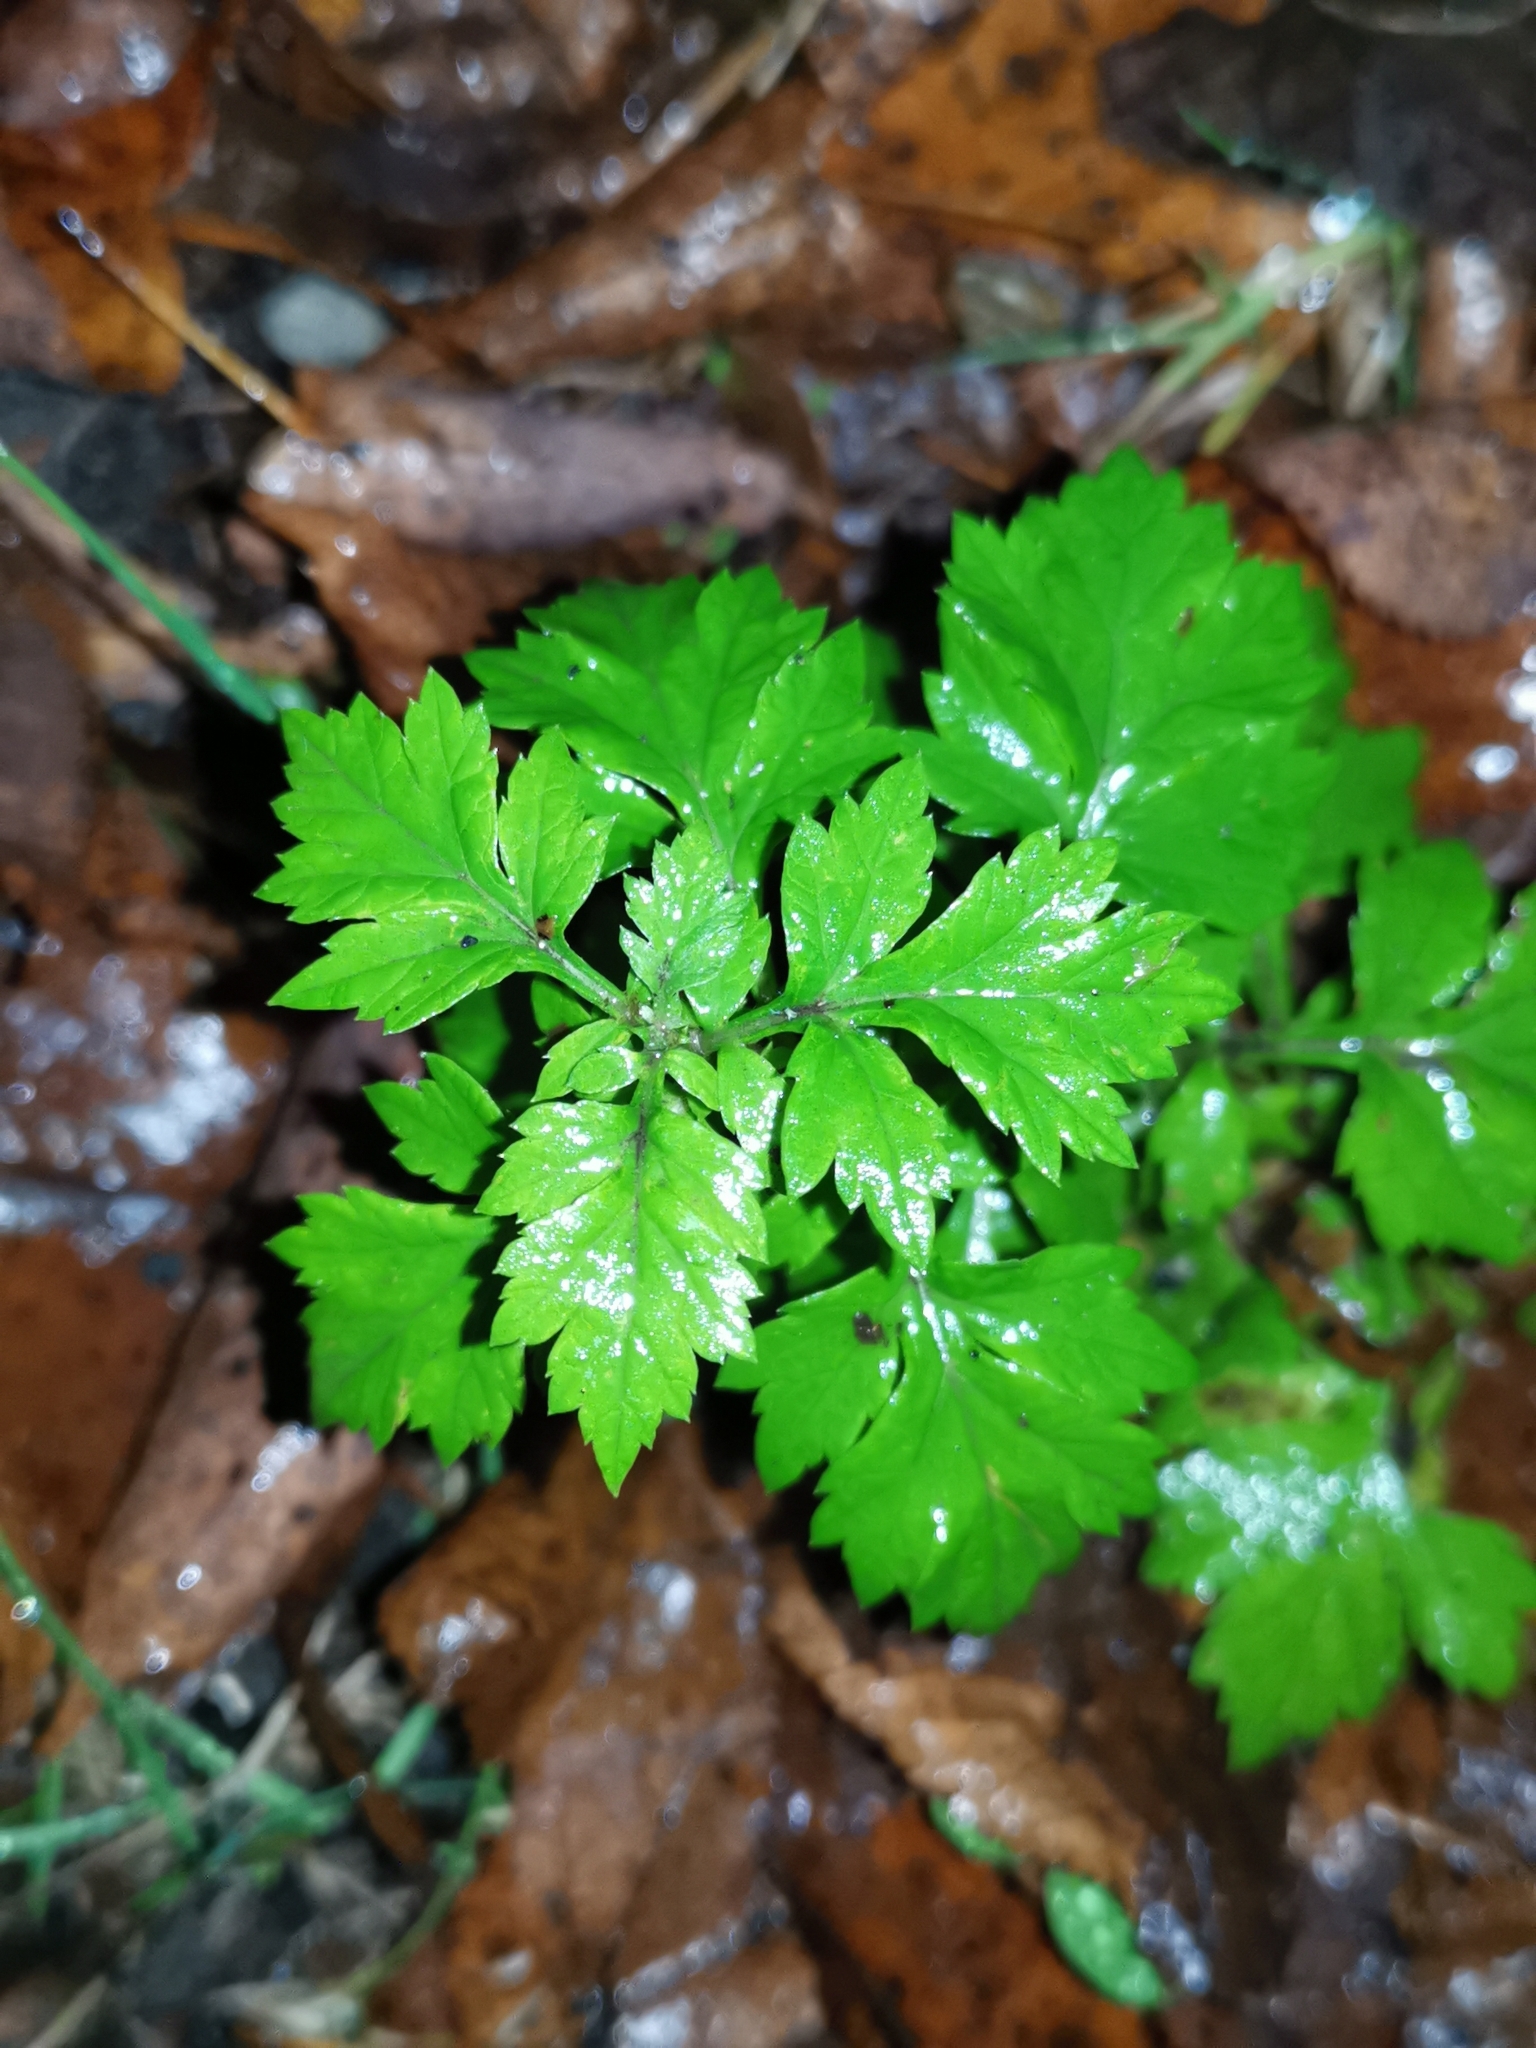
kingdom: Plantae
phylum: Tracheophyta
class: Magnoliopsida
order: Asterales
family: Asteraceae
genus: Artemisia
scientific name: Artemisia vulgaris
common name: Mugwort
